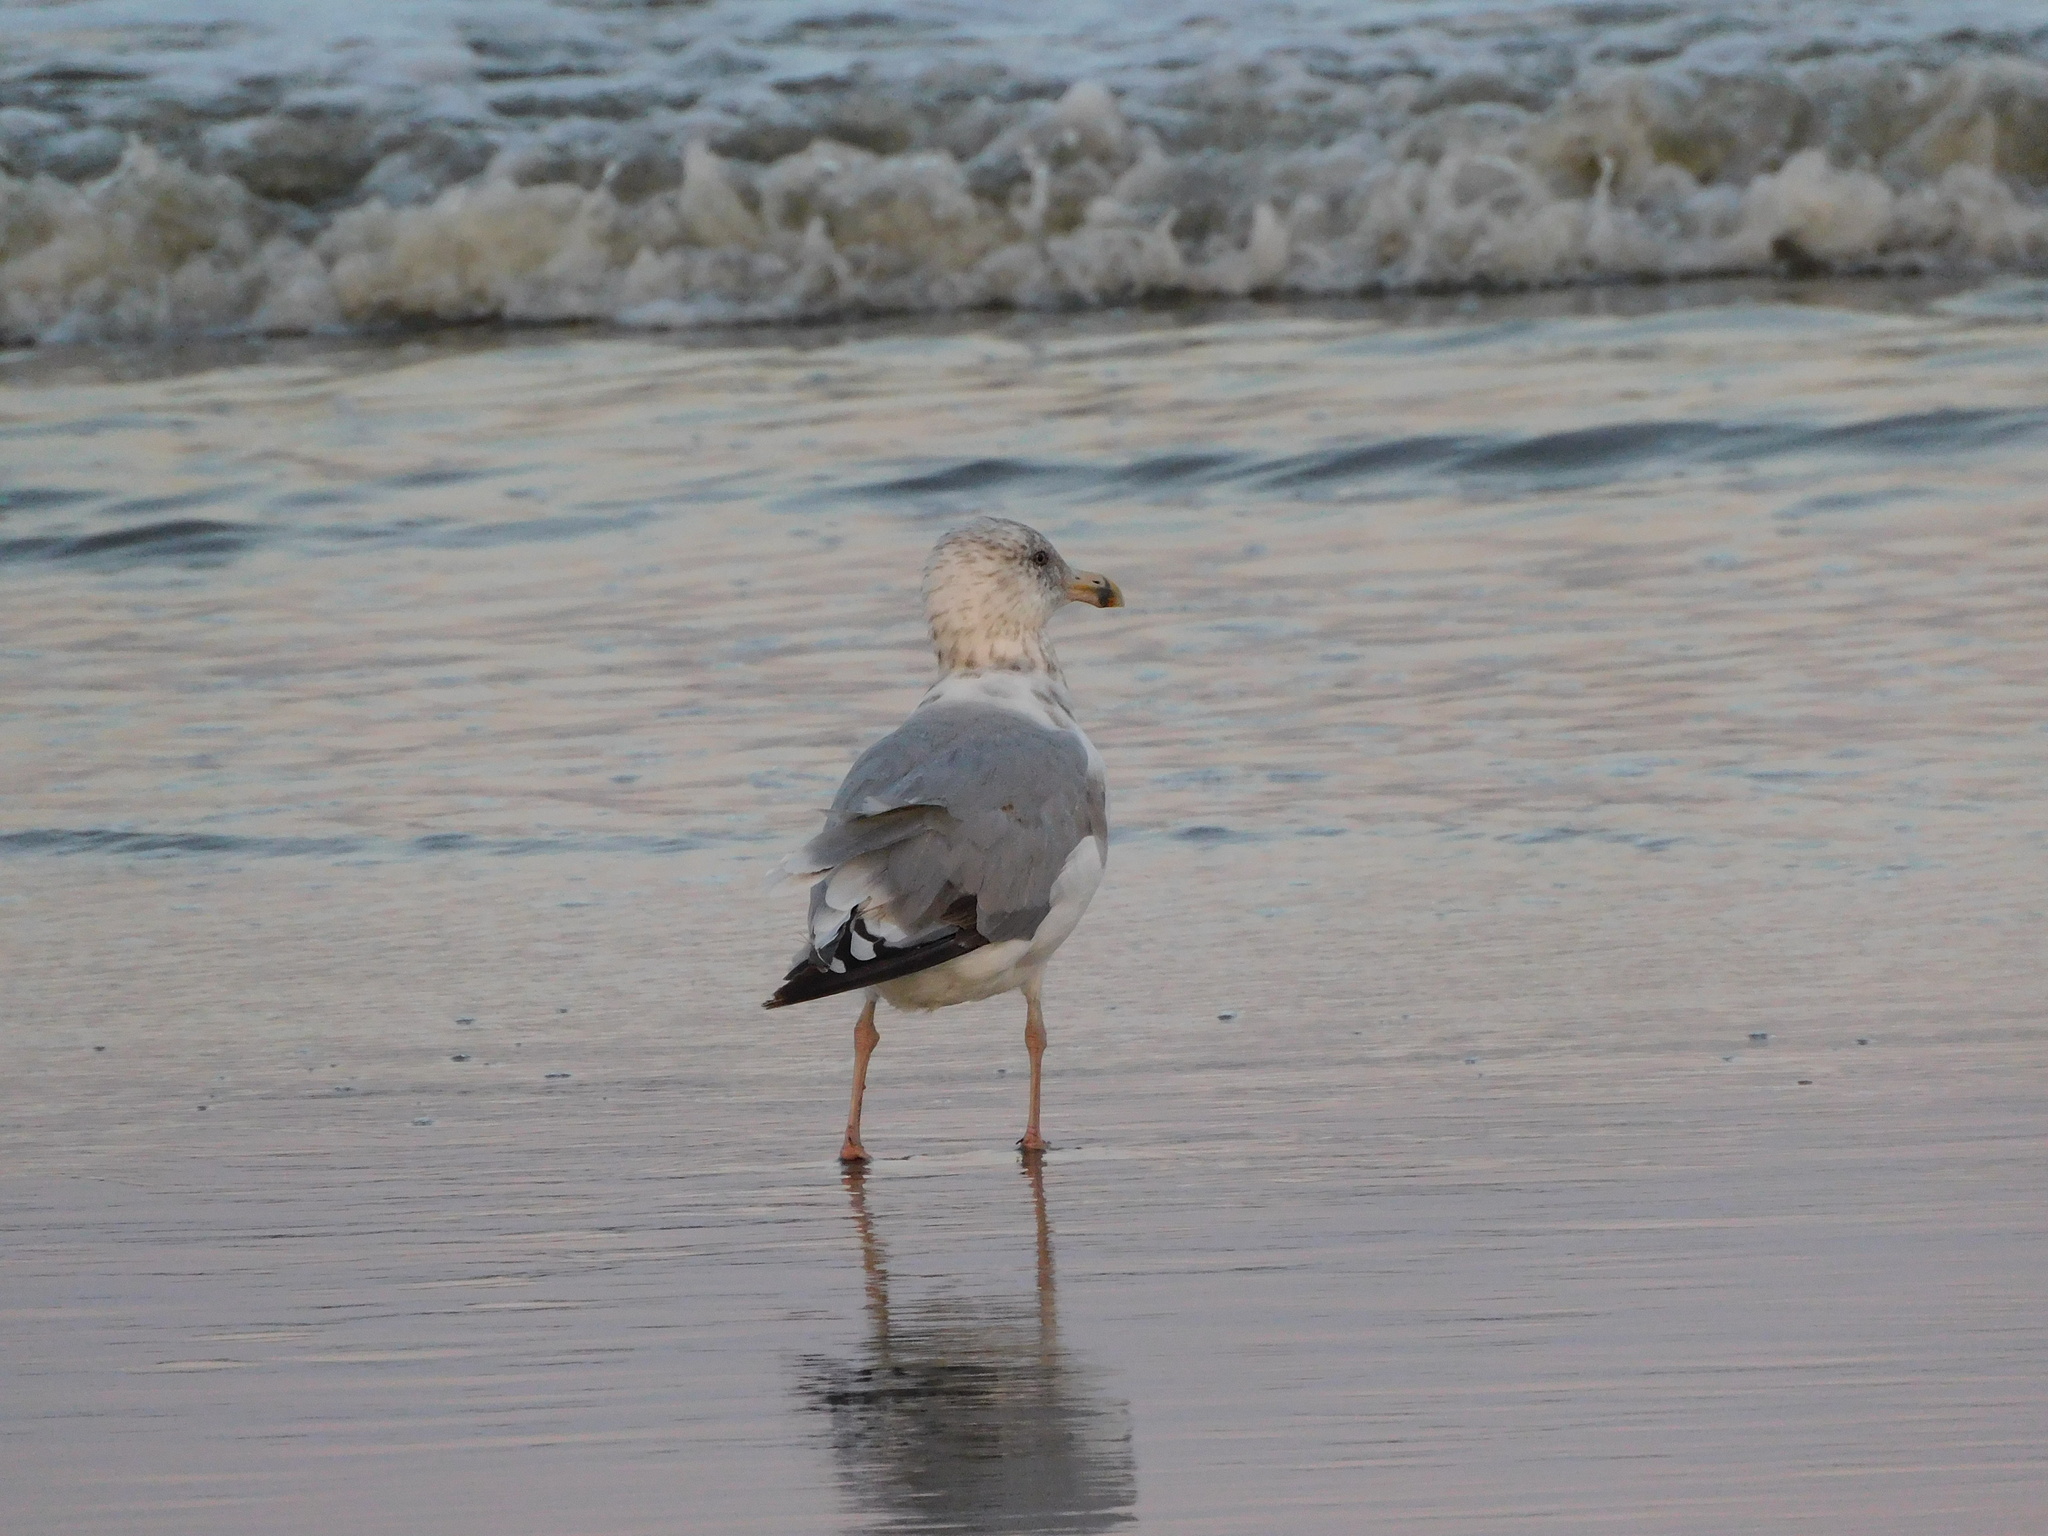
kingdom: Animalia
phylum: Chordata
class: Aves
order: Charadriiformes
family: Laridae
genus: Larus
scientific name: Larus delawarensis
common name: Ring-billed gull
